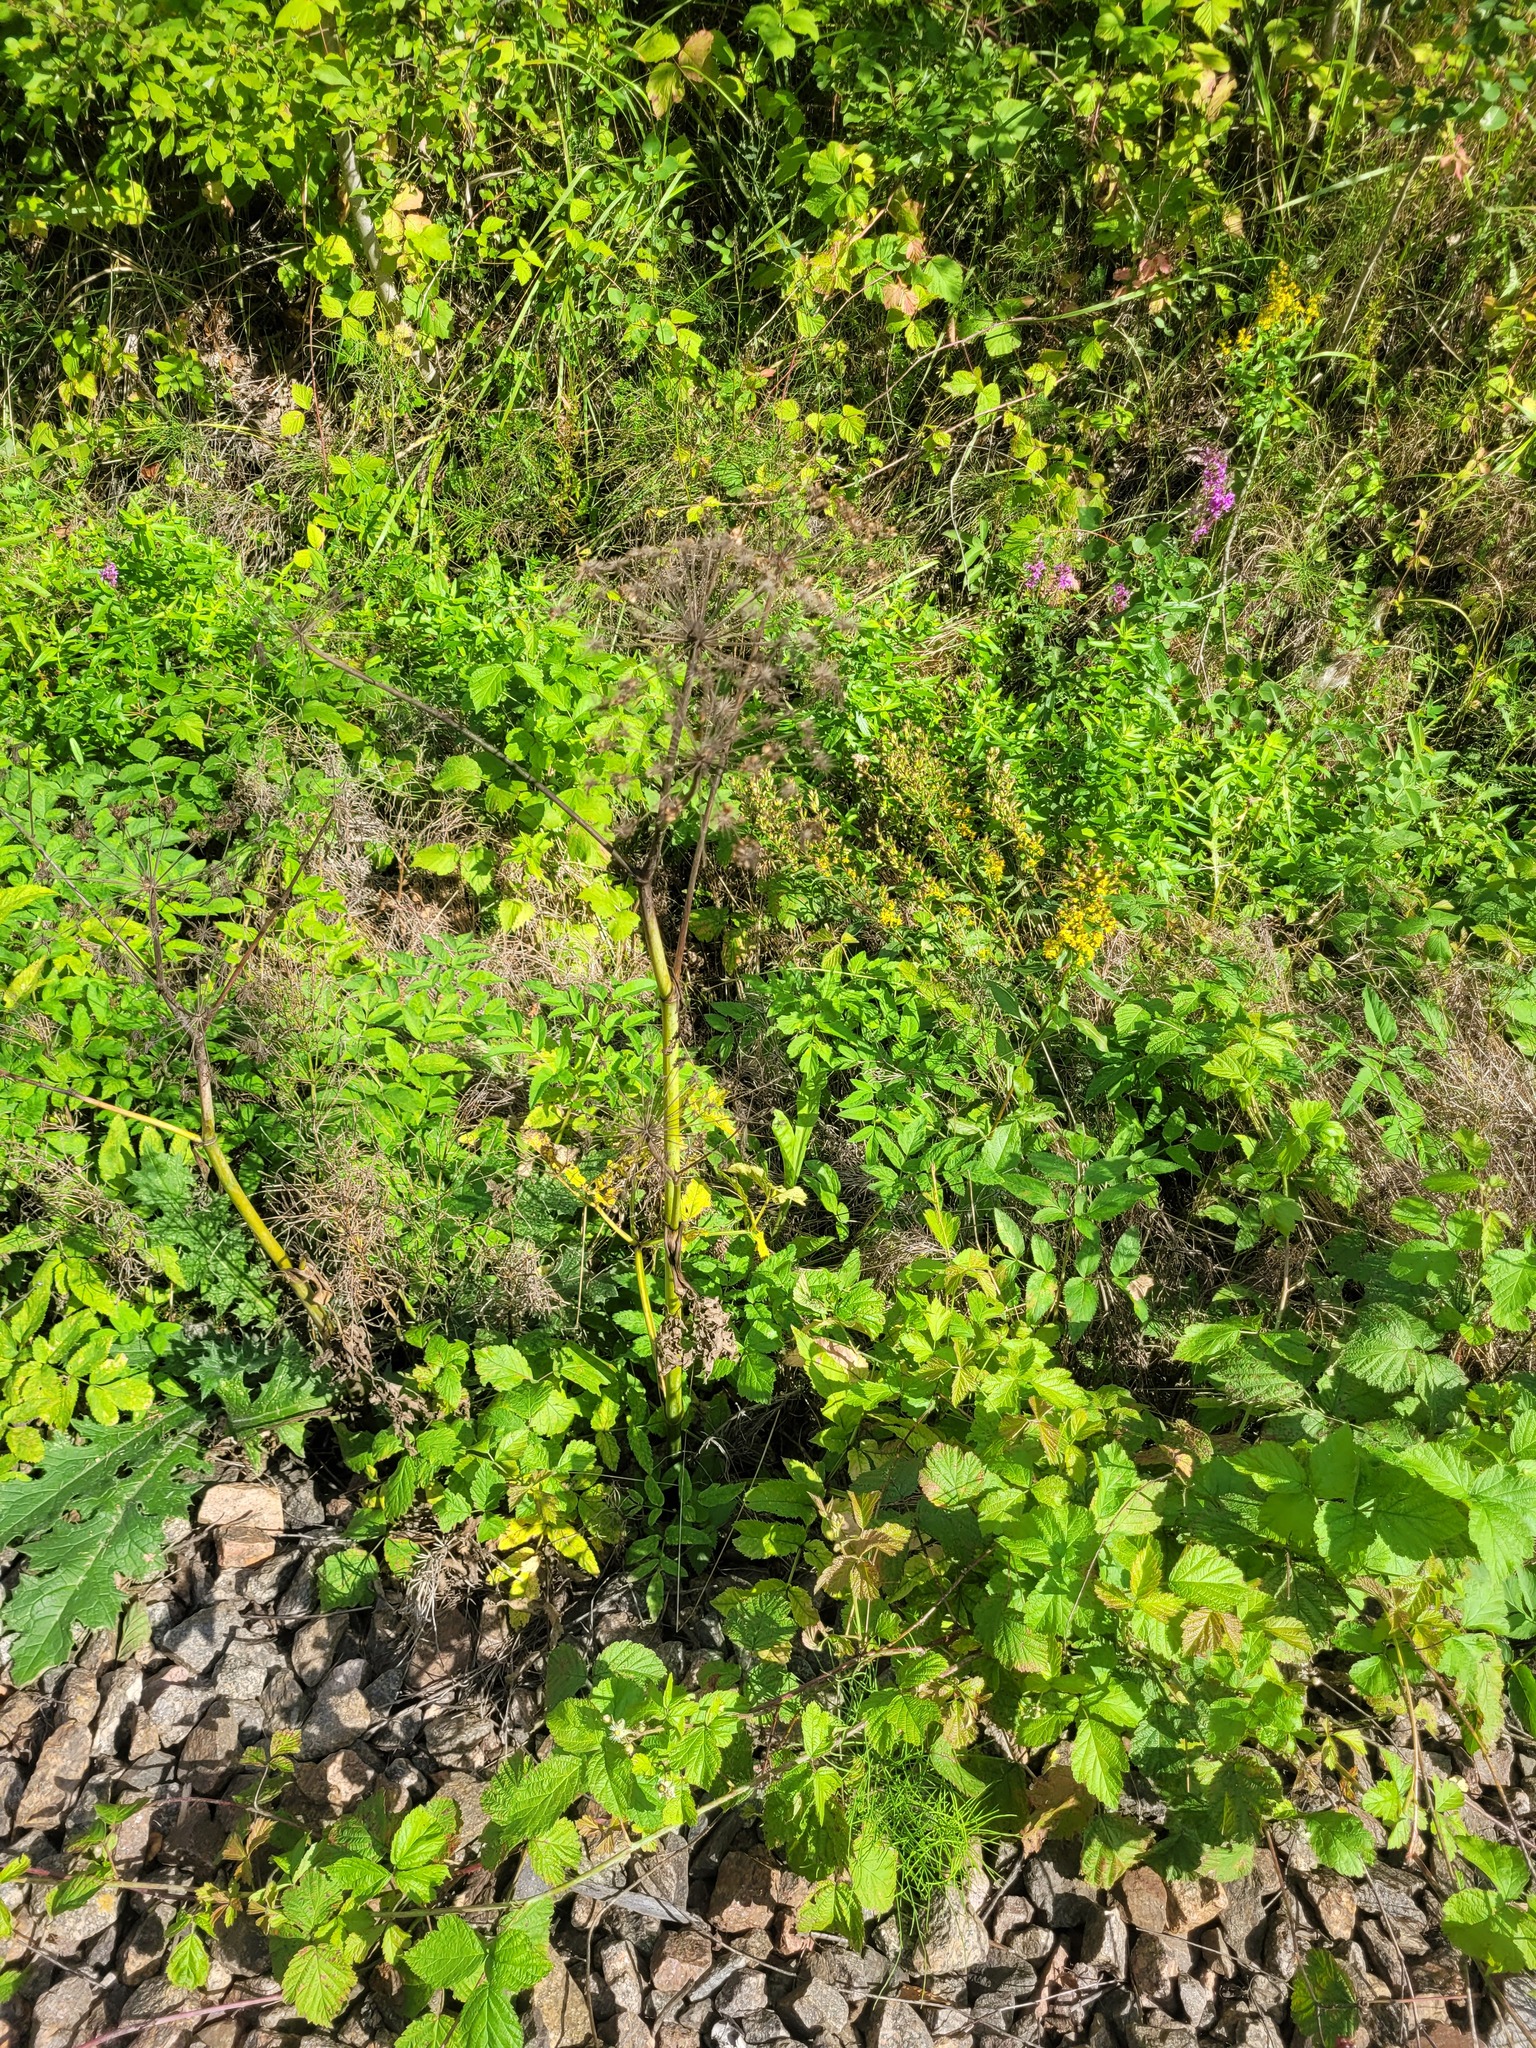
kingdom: Plantae
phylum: Tracheophyta
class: Magnoliopsida
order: Apiales
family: Apiaceae
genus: Angelica
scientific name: Angelica sylvestris
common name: Wild angelica
